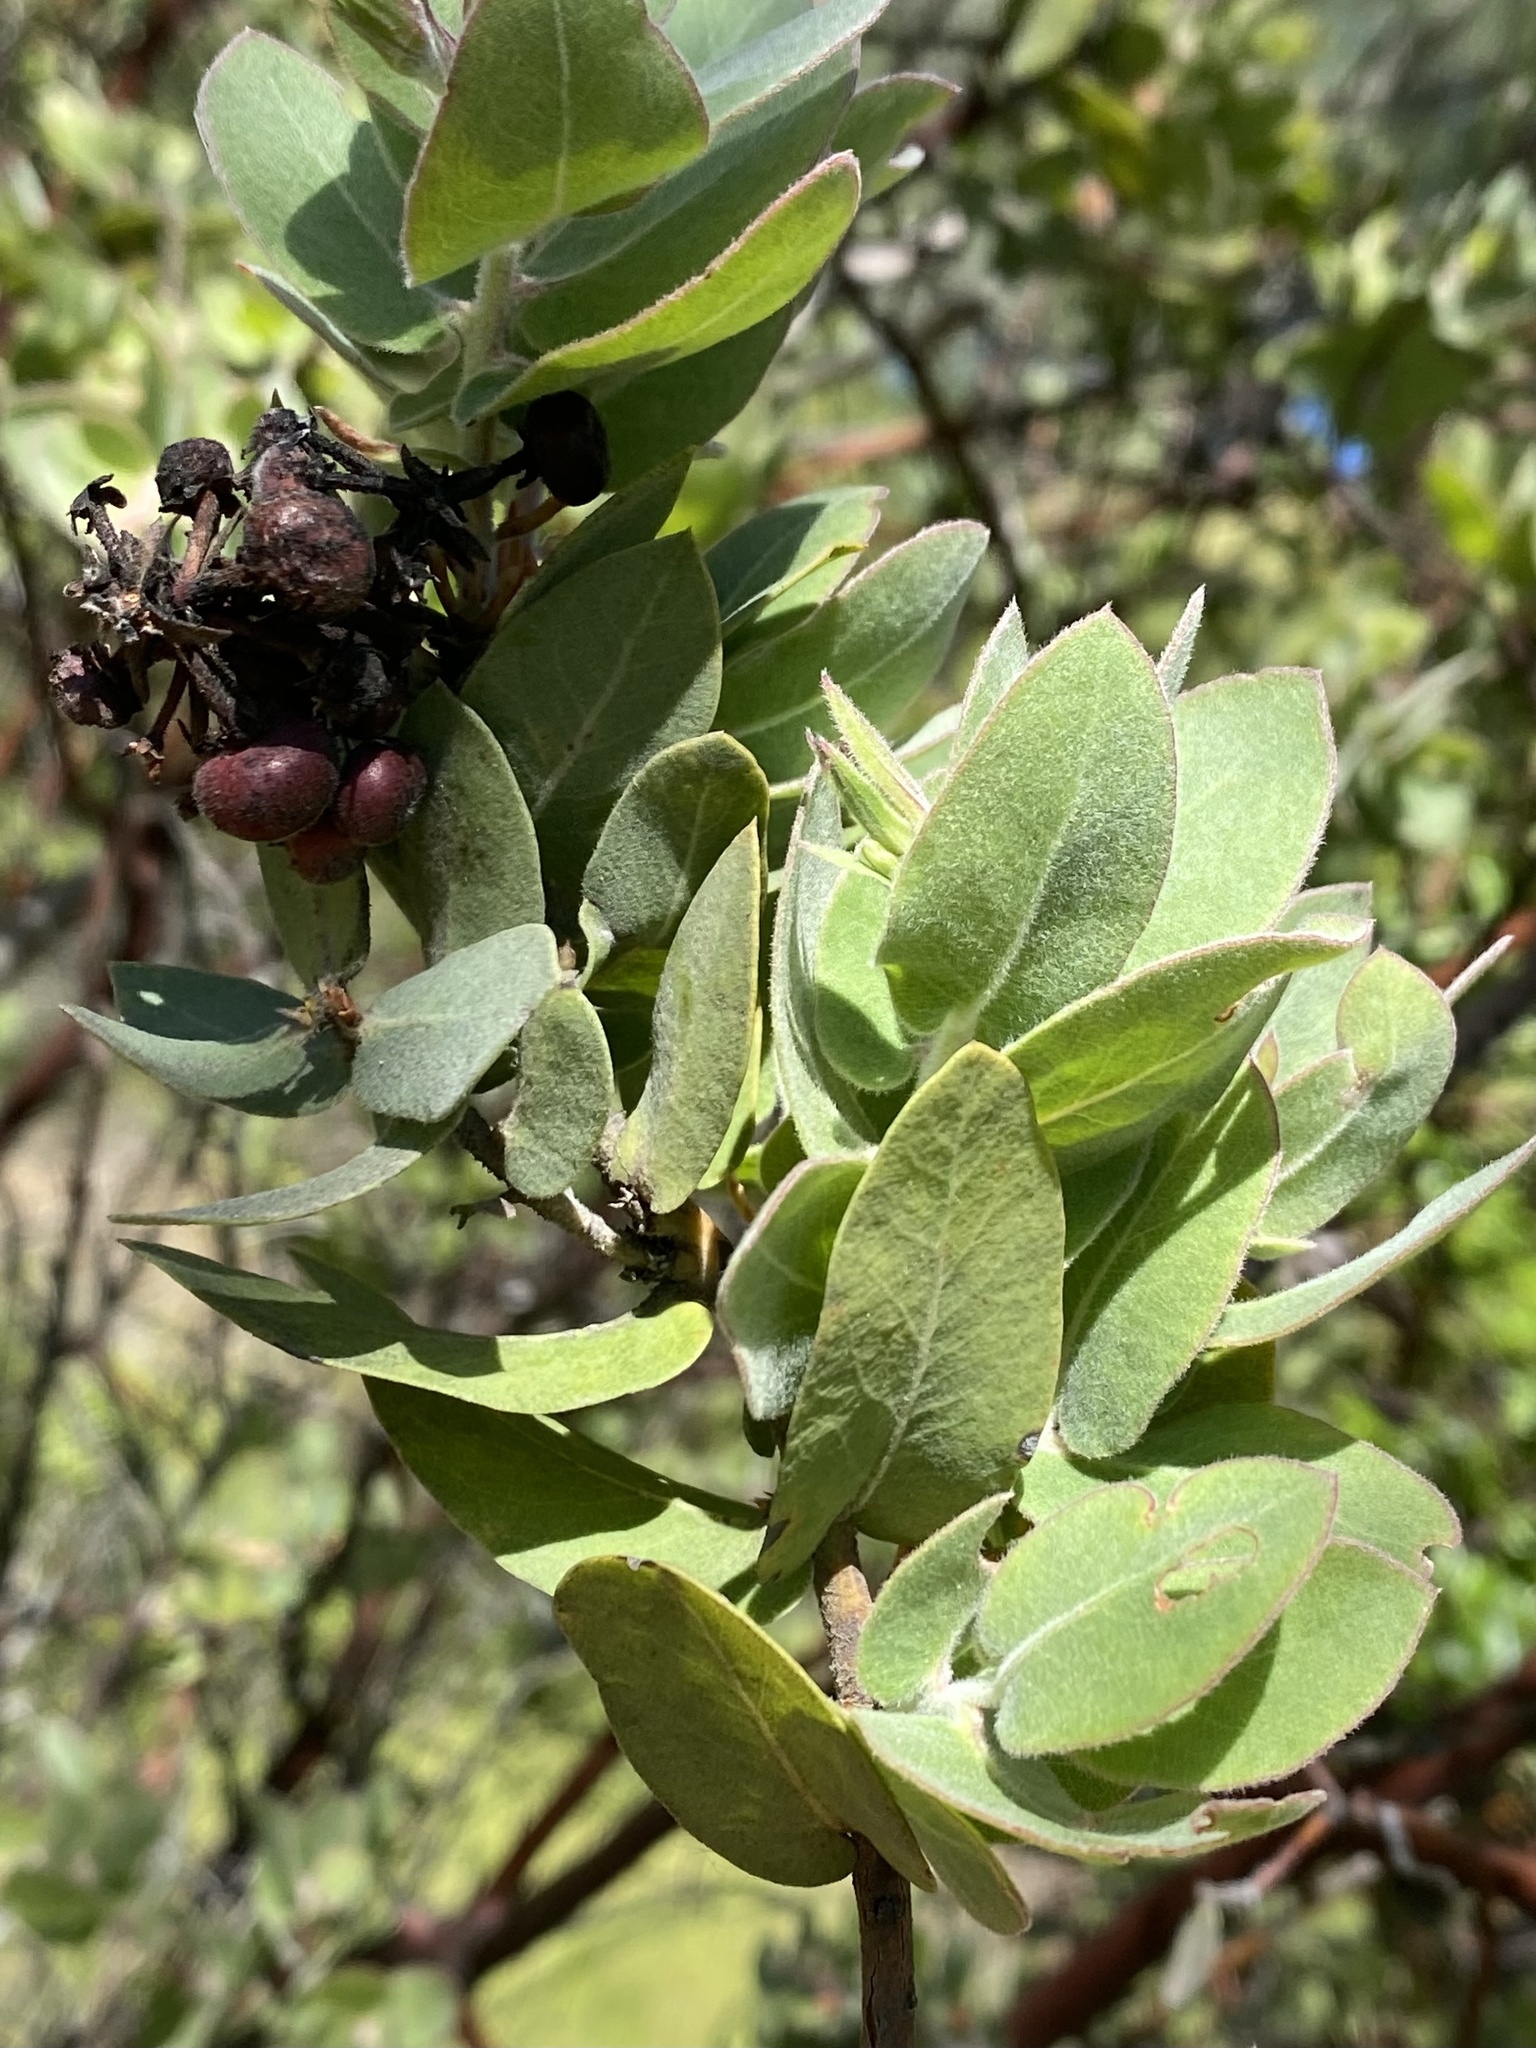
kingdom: Plantae
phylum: Tracheophyta
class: Magnoliopsida
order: Ericales
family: Ericaceae
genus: Arctostaphylos
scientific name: Arctostaphylos auriculata
